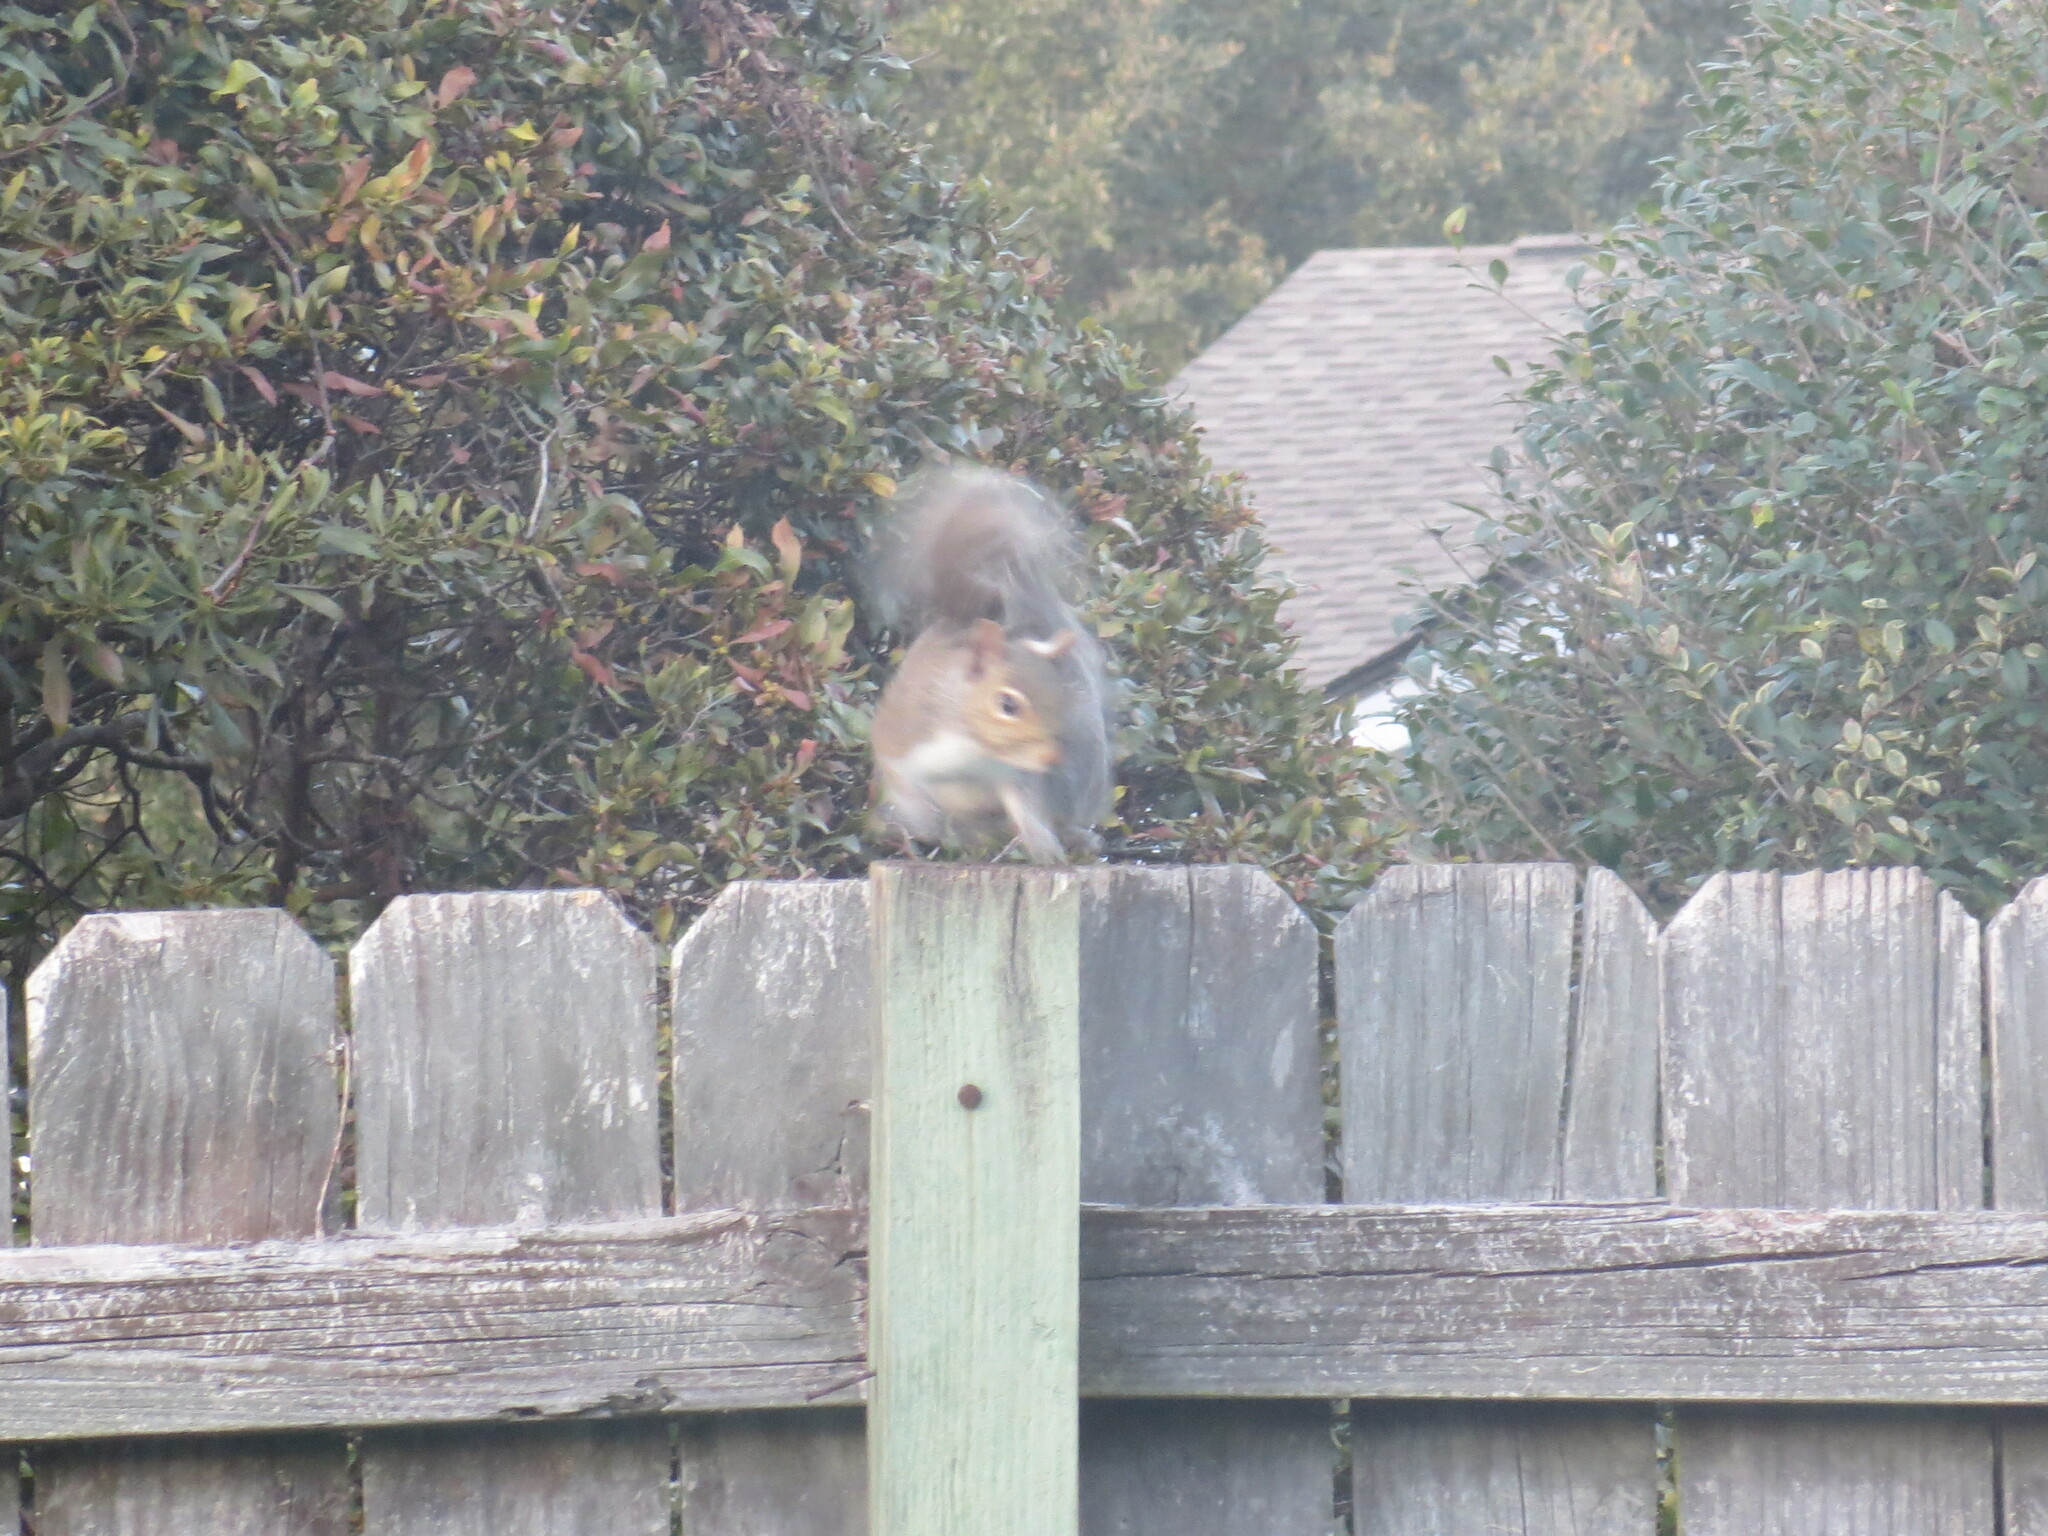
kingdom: Animalia
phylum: Chordata
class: Mammalia
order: Rodentia
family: Sciuridae
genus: Sciurus
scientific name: Sciurus carolinensis
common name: Eastern gray squirrel
